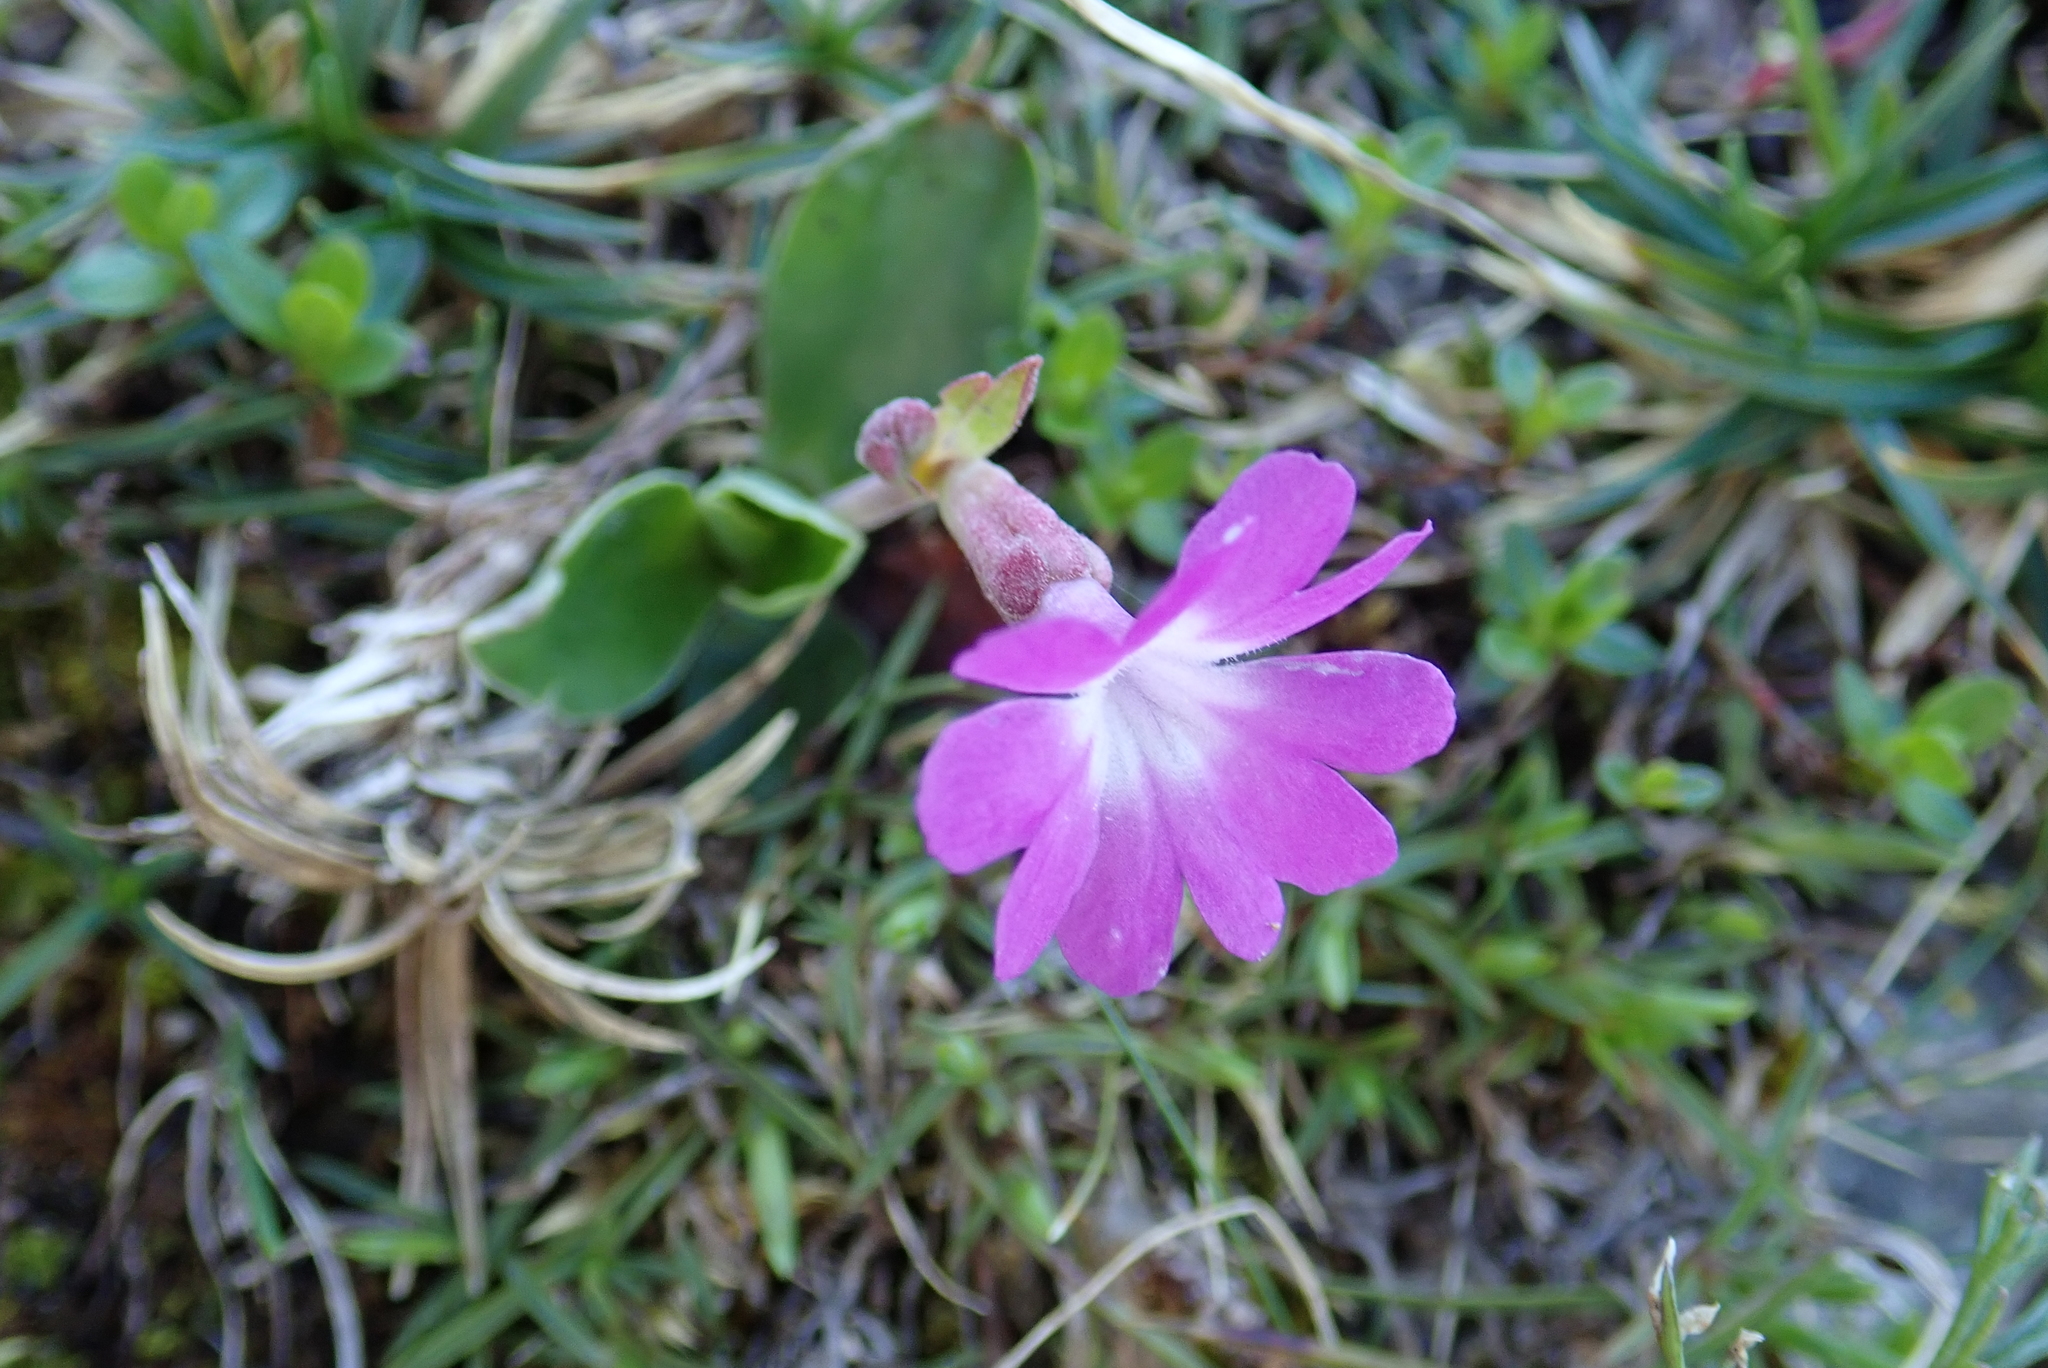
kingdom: Plantae
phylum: Tracheophyta
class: Magnoliopsida
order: Ericales
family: Primulaceae
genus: Primula
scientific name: Primula clusiana
